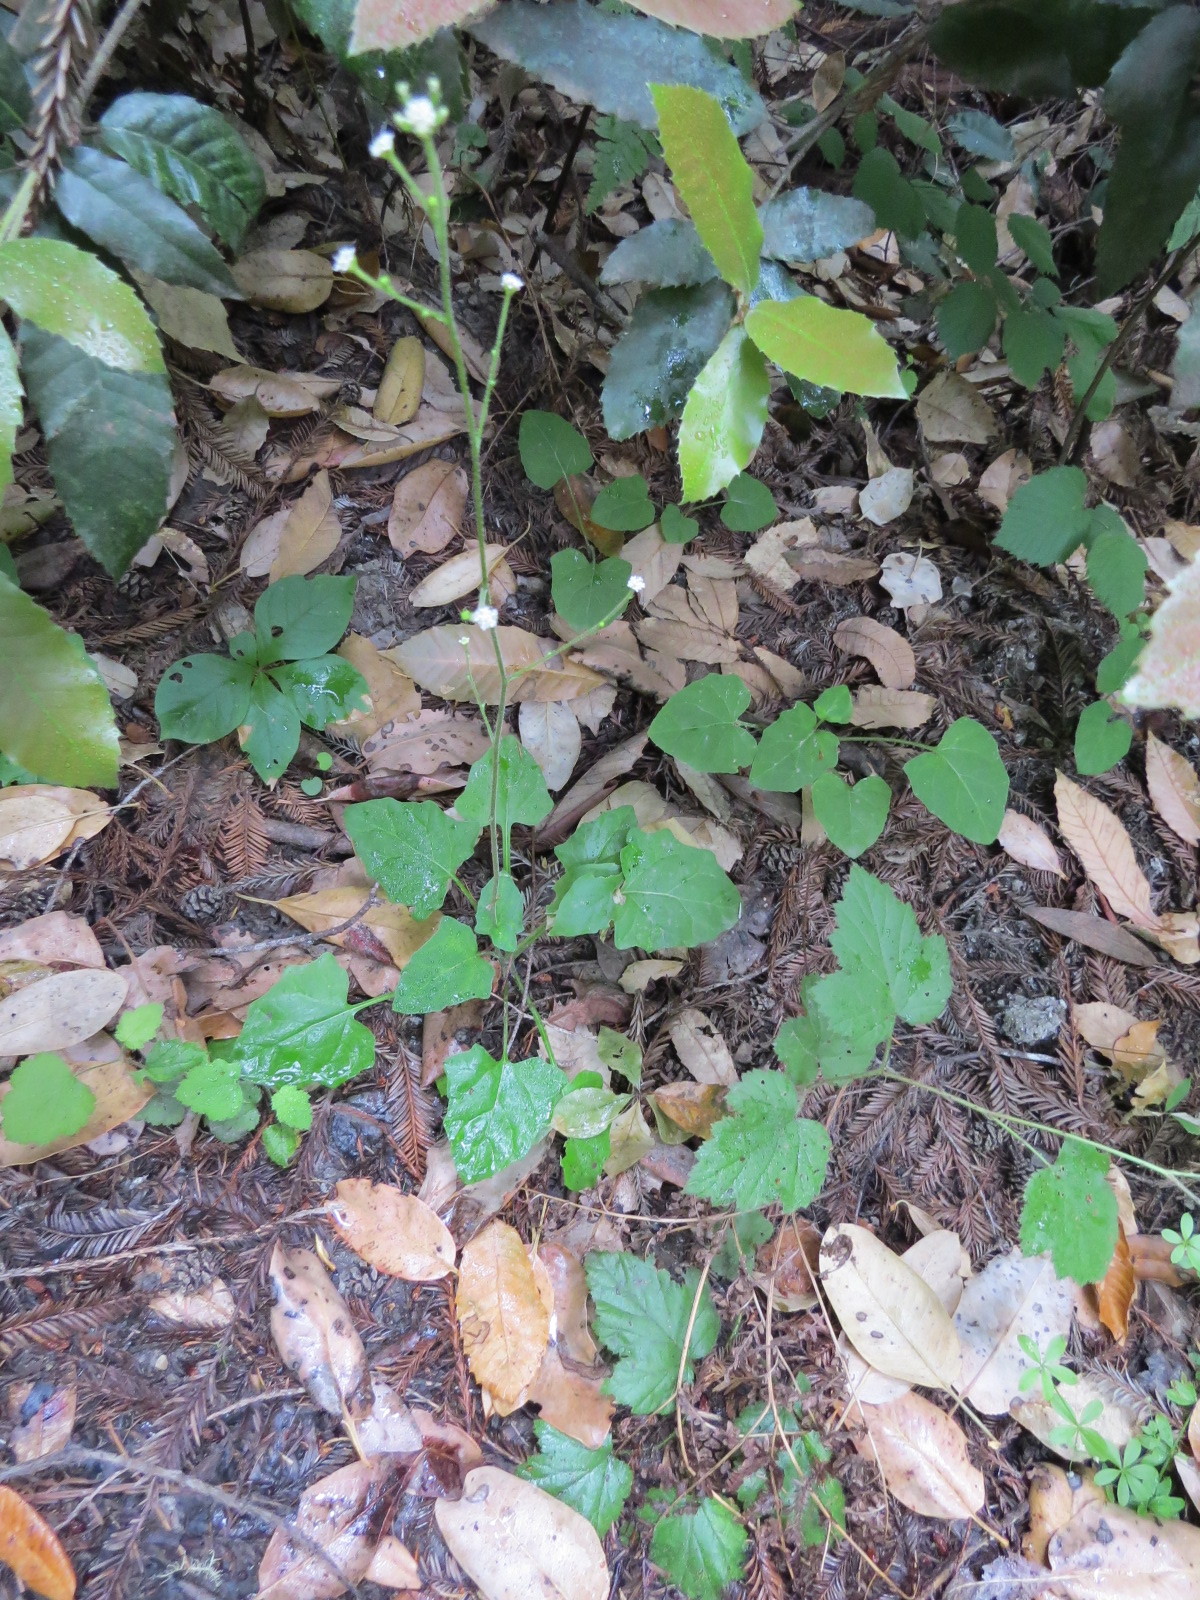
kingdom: Plantae
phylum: Tracheophyta
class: Magnoliopsida
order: Asterales
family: Asteraceae
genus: Adenocaulon
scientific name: Adenocaulon bicolor
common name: Trailplant
